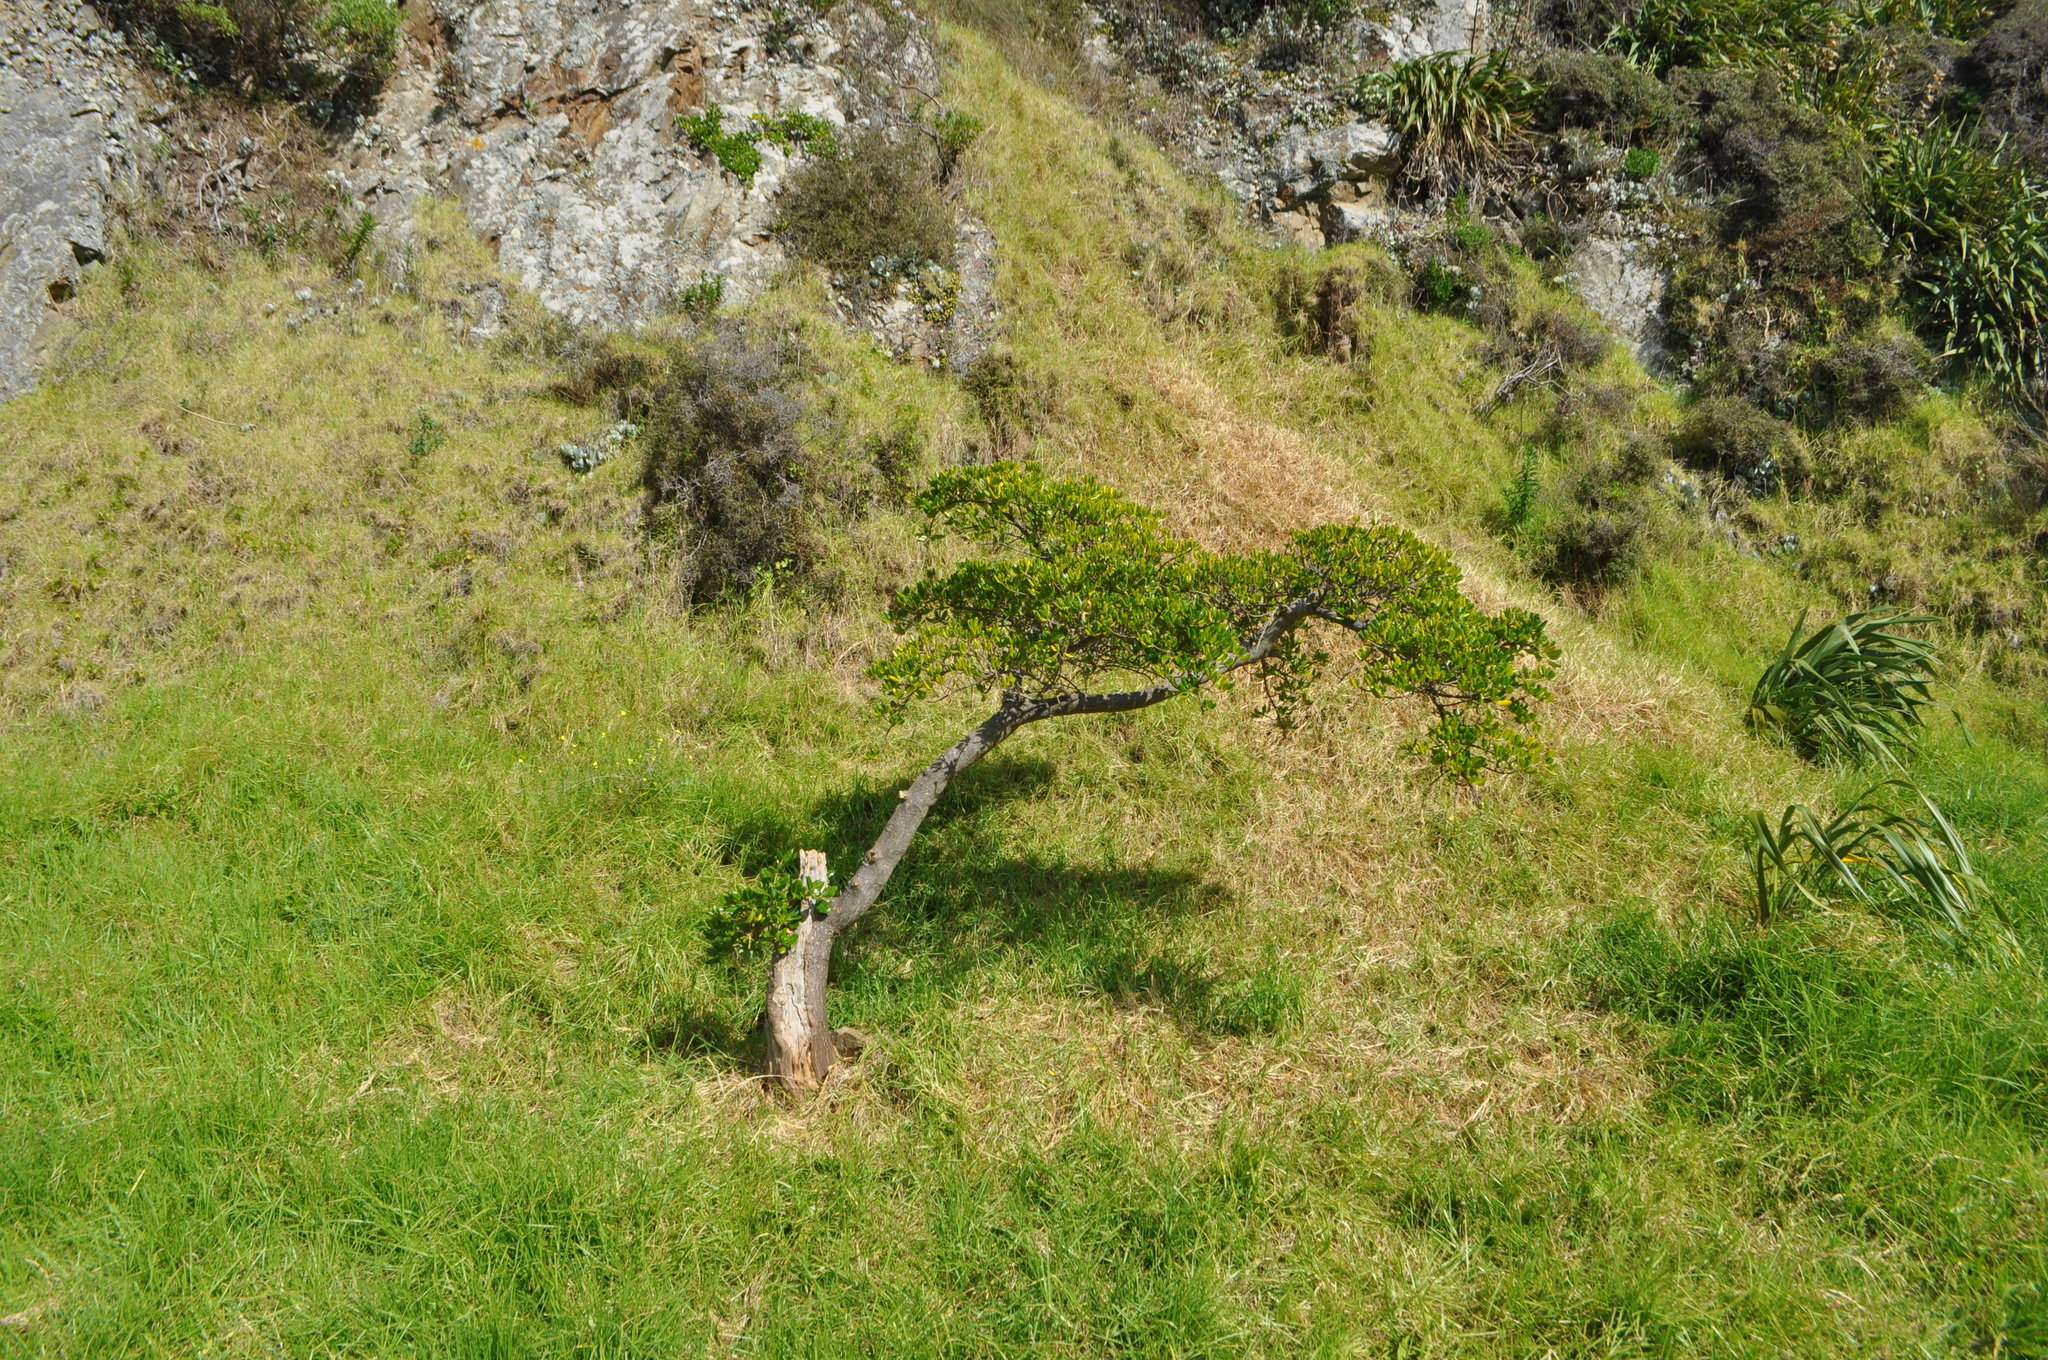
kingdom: Plantae
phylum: Tracheophyta
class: Magnoliopsida
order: Gentianales
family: Rubiaceae
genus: Coprosma
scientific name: Coprosma repens
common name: Tree bedstraw
